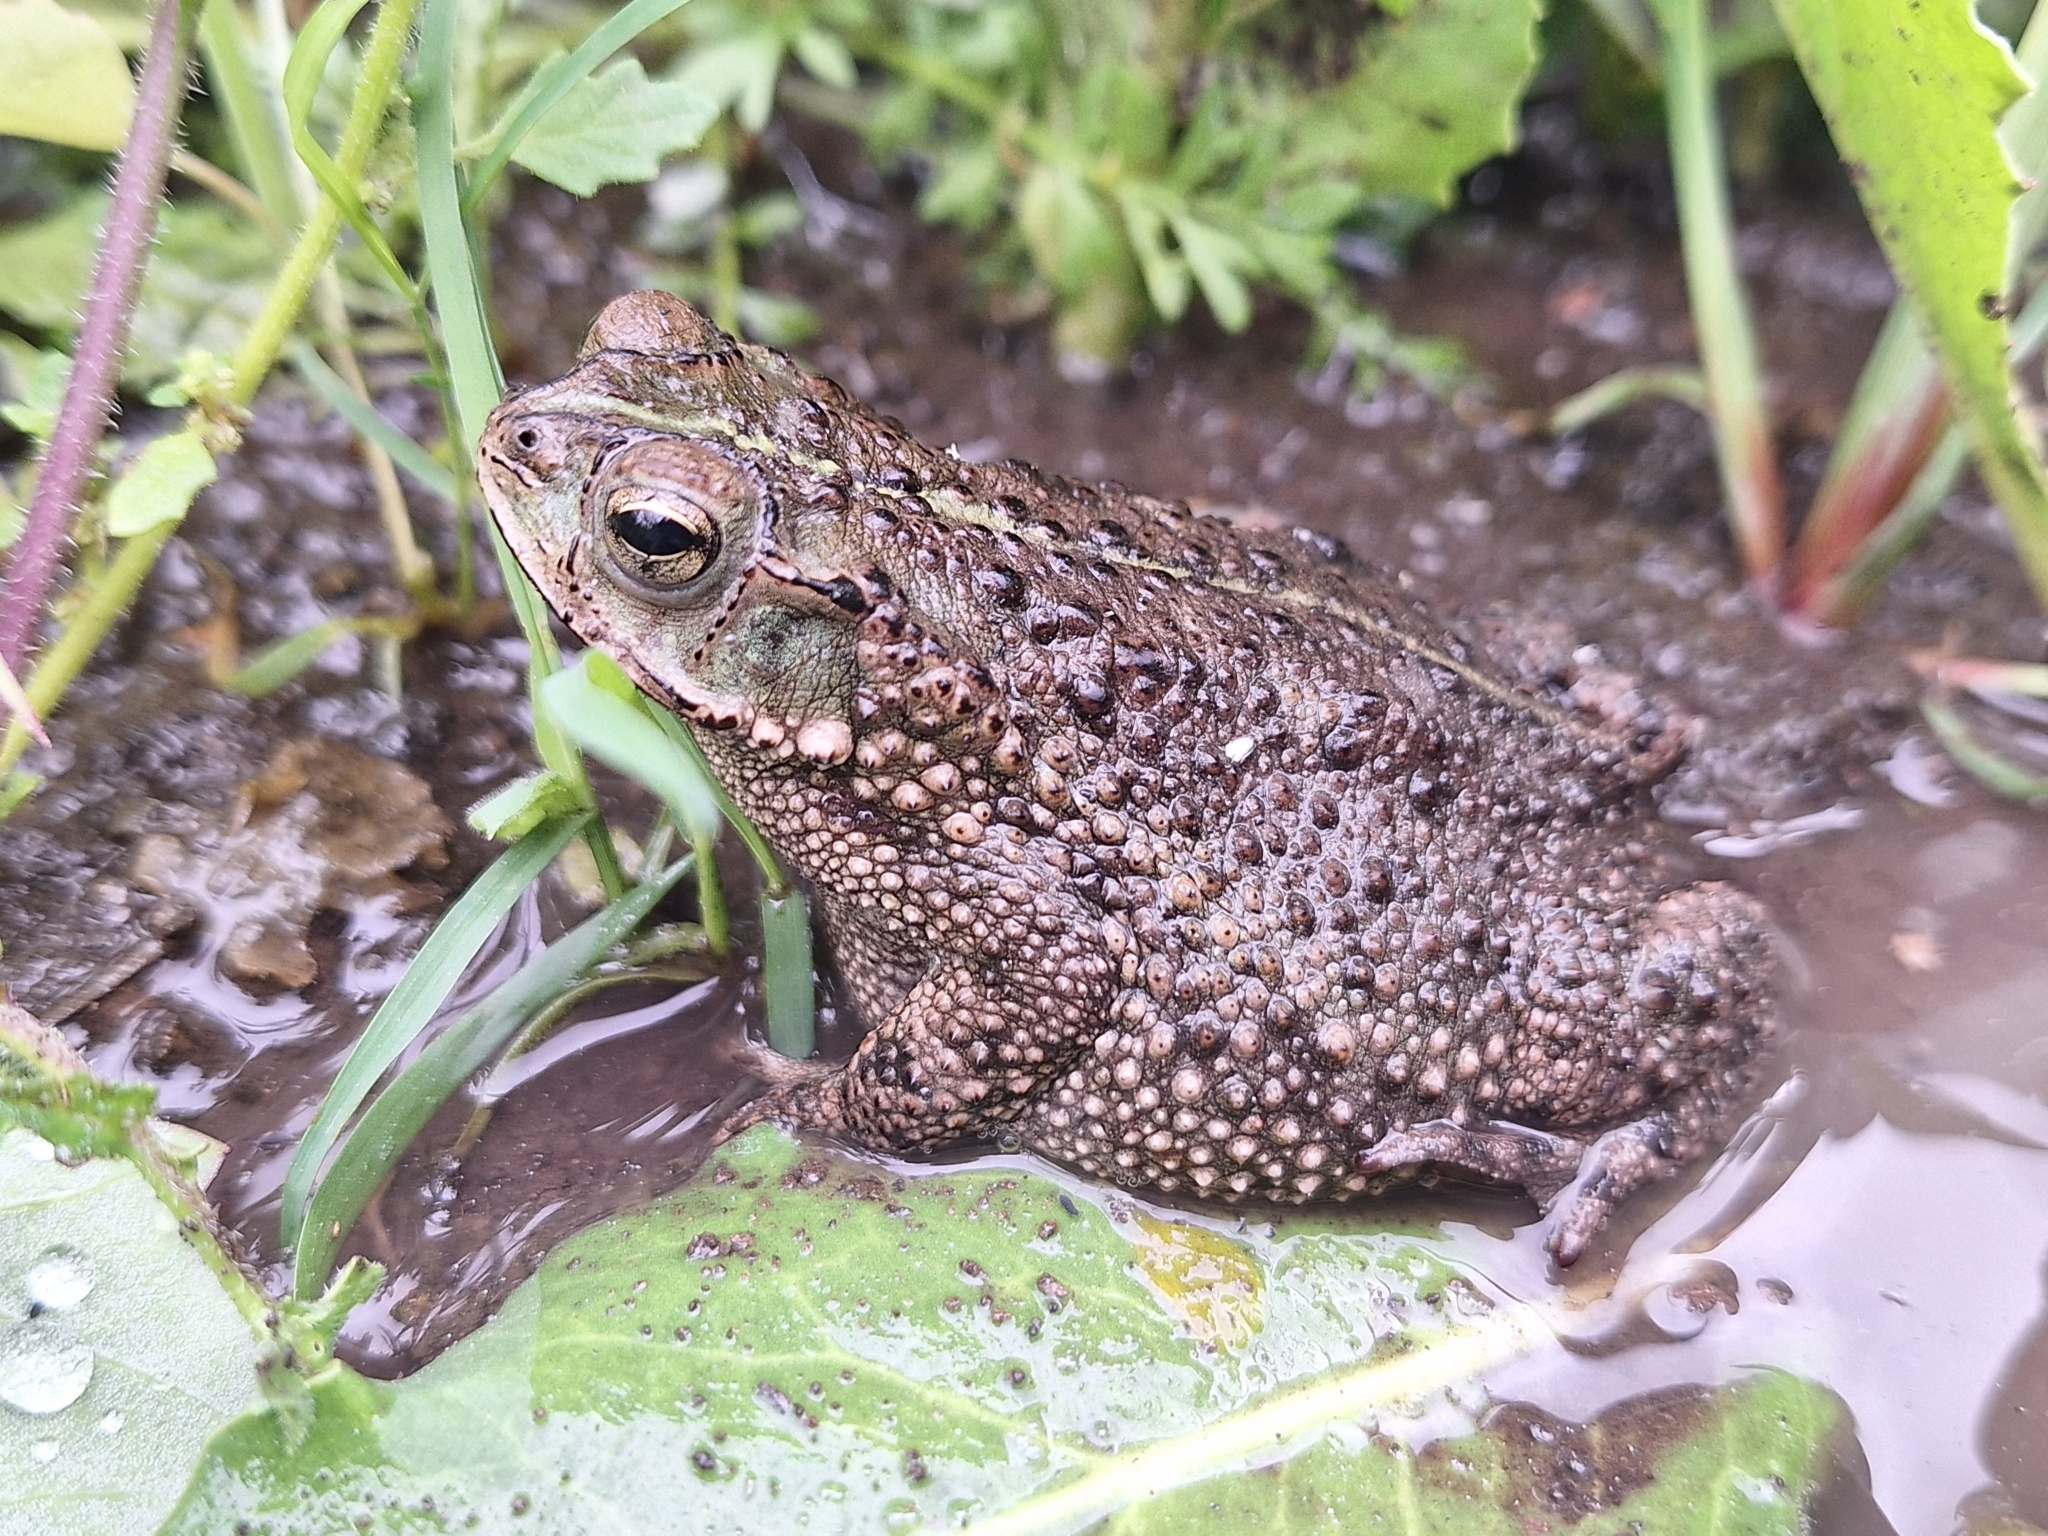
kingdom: Animalia
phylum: Chordata
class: Amphibia
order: Anura
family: Bufonidae
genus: Rhinella
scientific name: Rhinella dorbignyi
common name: D´orbigny’s toad
